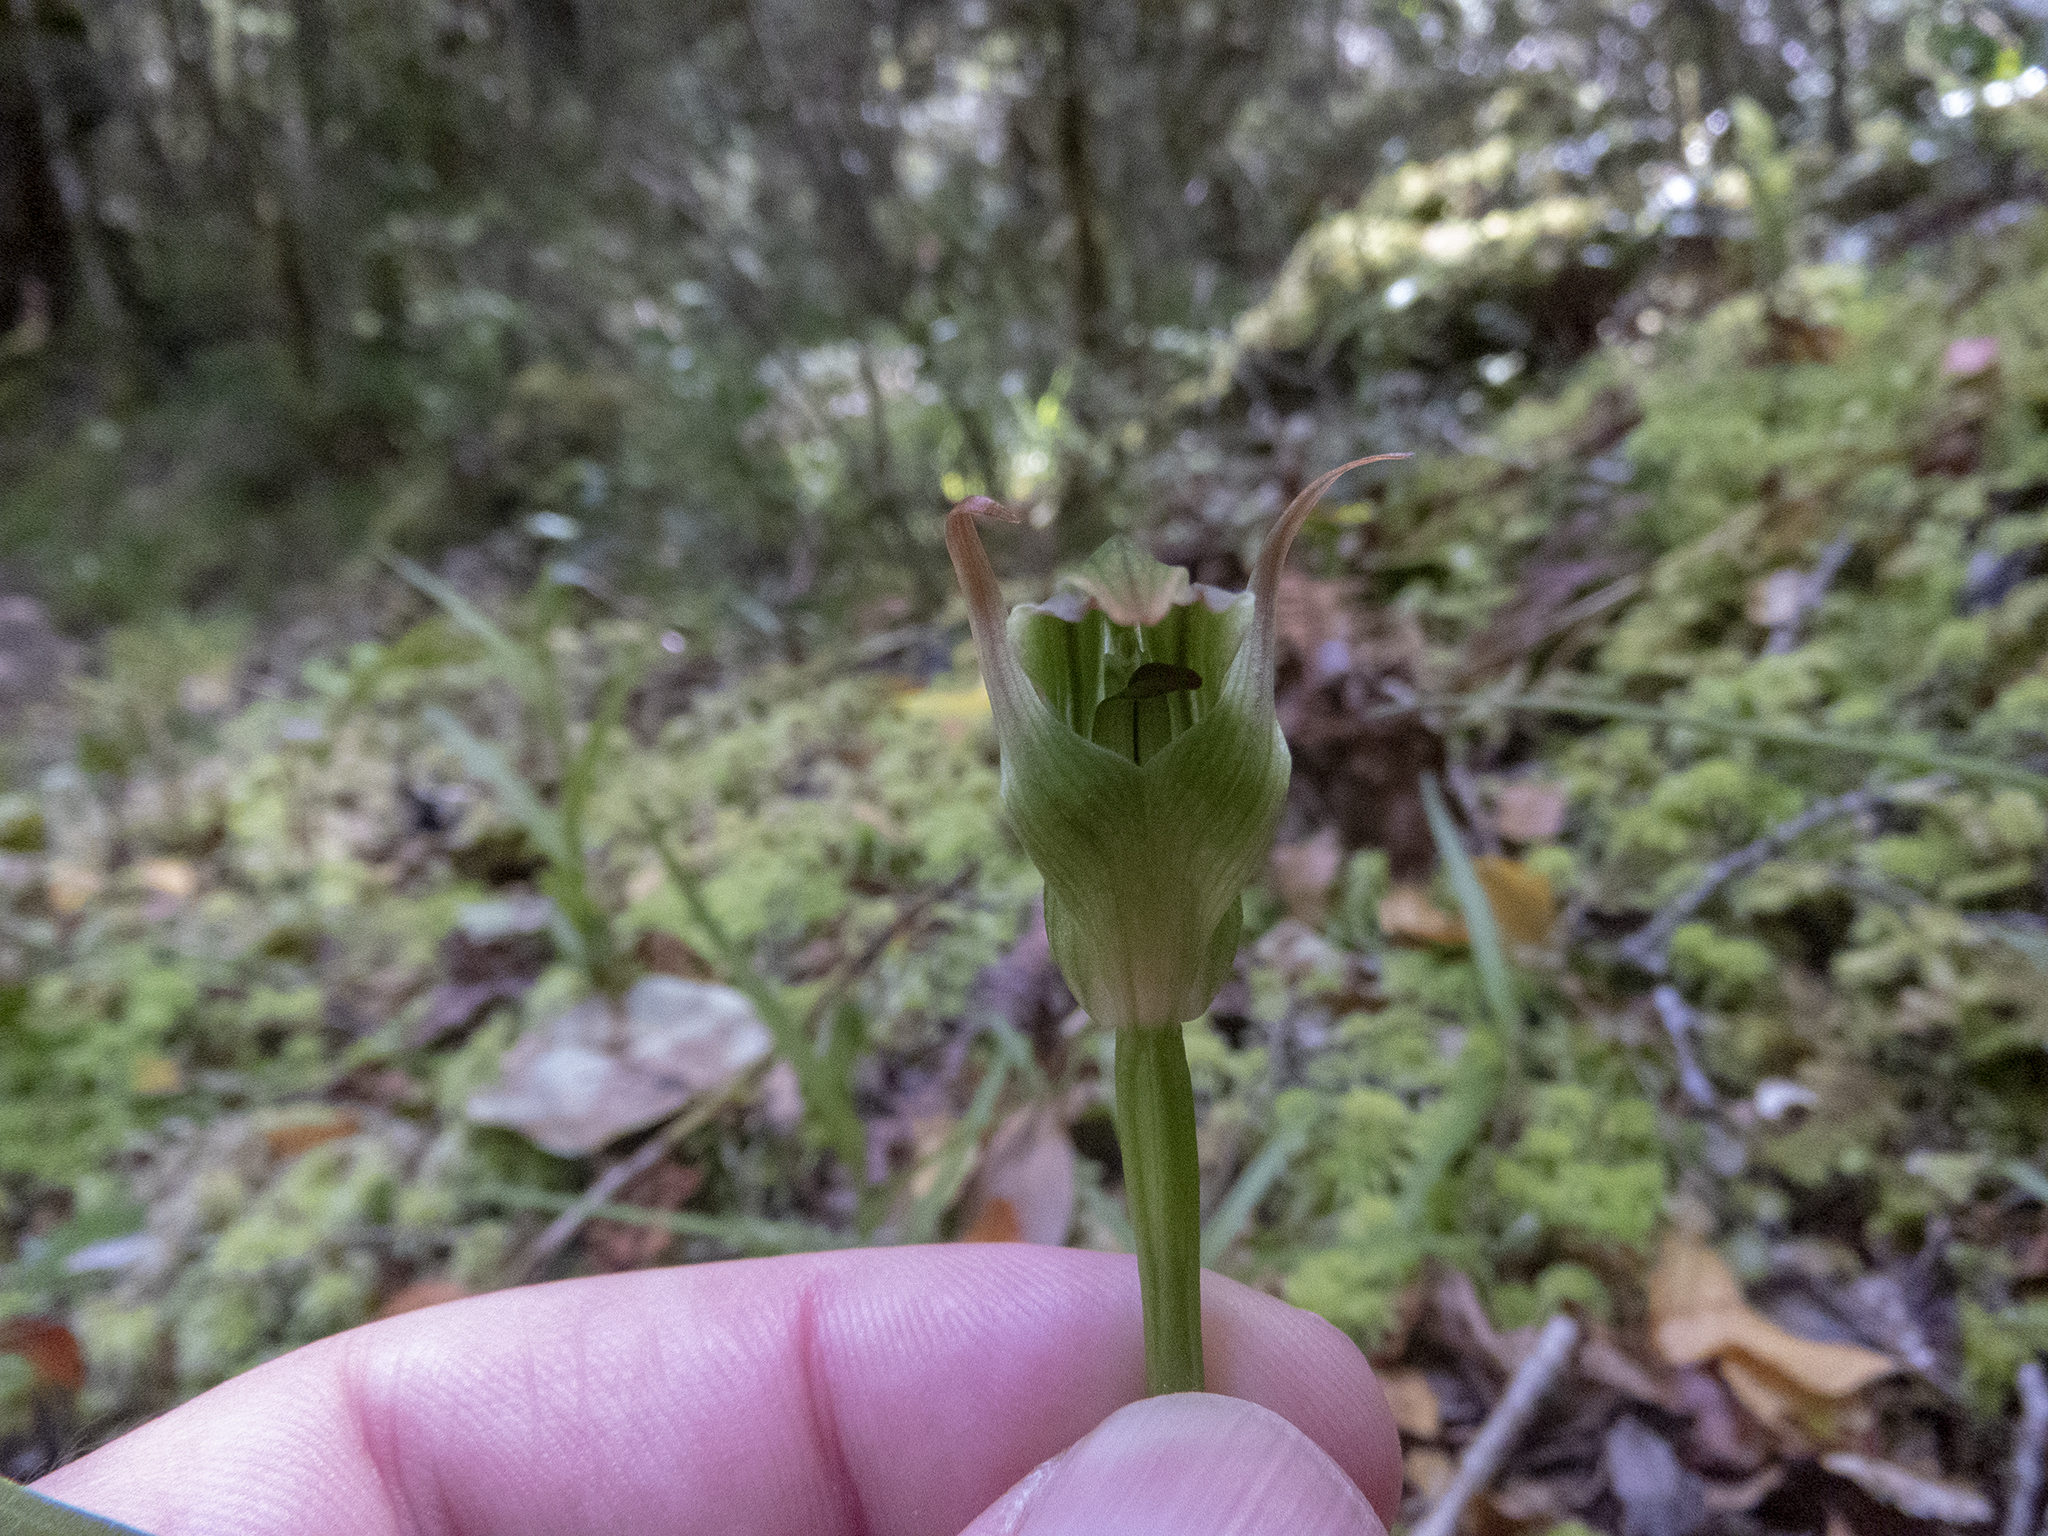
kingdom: Plantae
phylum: Tracheophyta
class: Liliopsida
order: Asparagales
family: Orchidaceae
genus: Pterostylis
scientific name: Pterostylis montana
